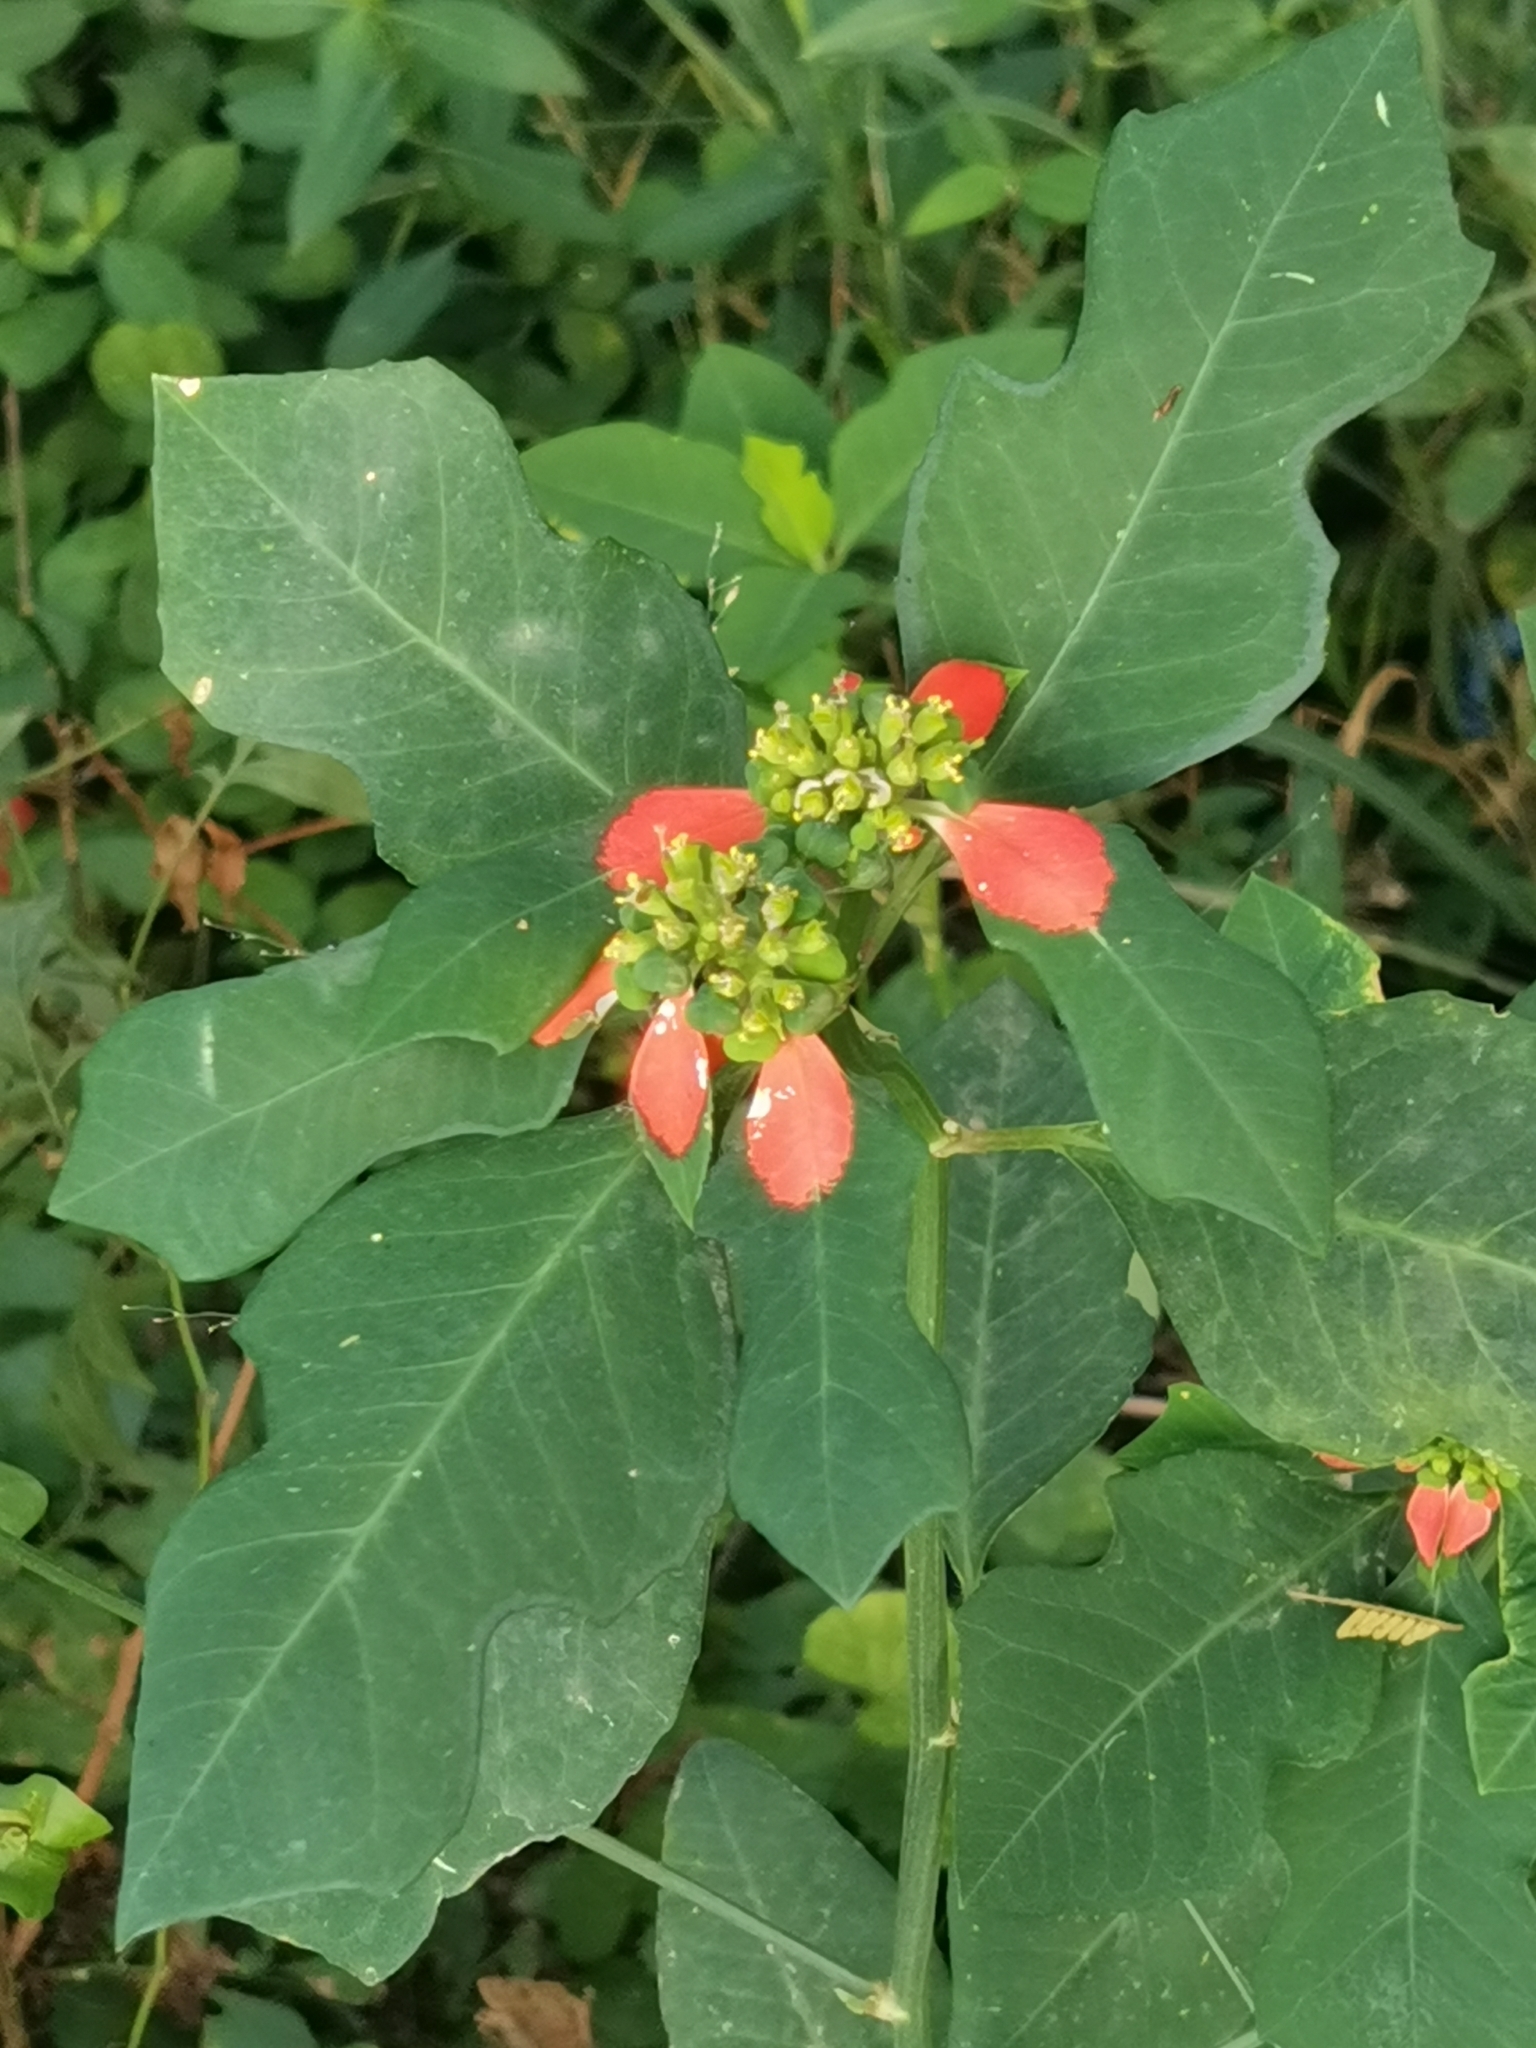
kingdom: Plantae
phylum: Tracheophyta
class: Magnoliopsida
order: Malpighiales
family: Euphorbiaceae
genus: Euphorbia
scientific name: Euphorbia heterophylla
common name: Mexican fireplant
